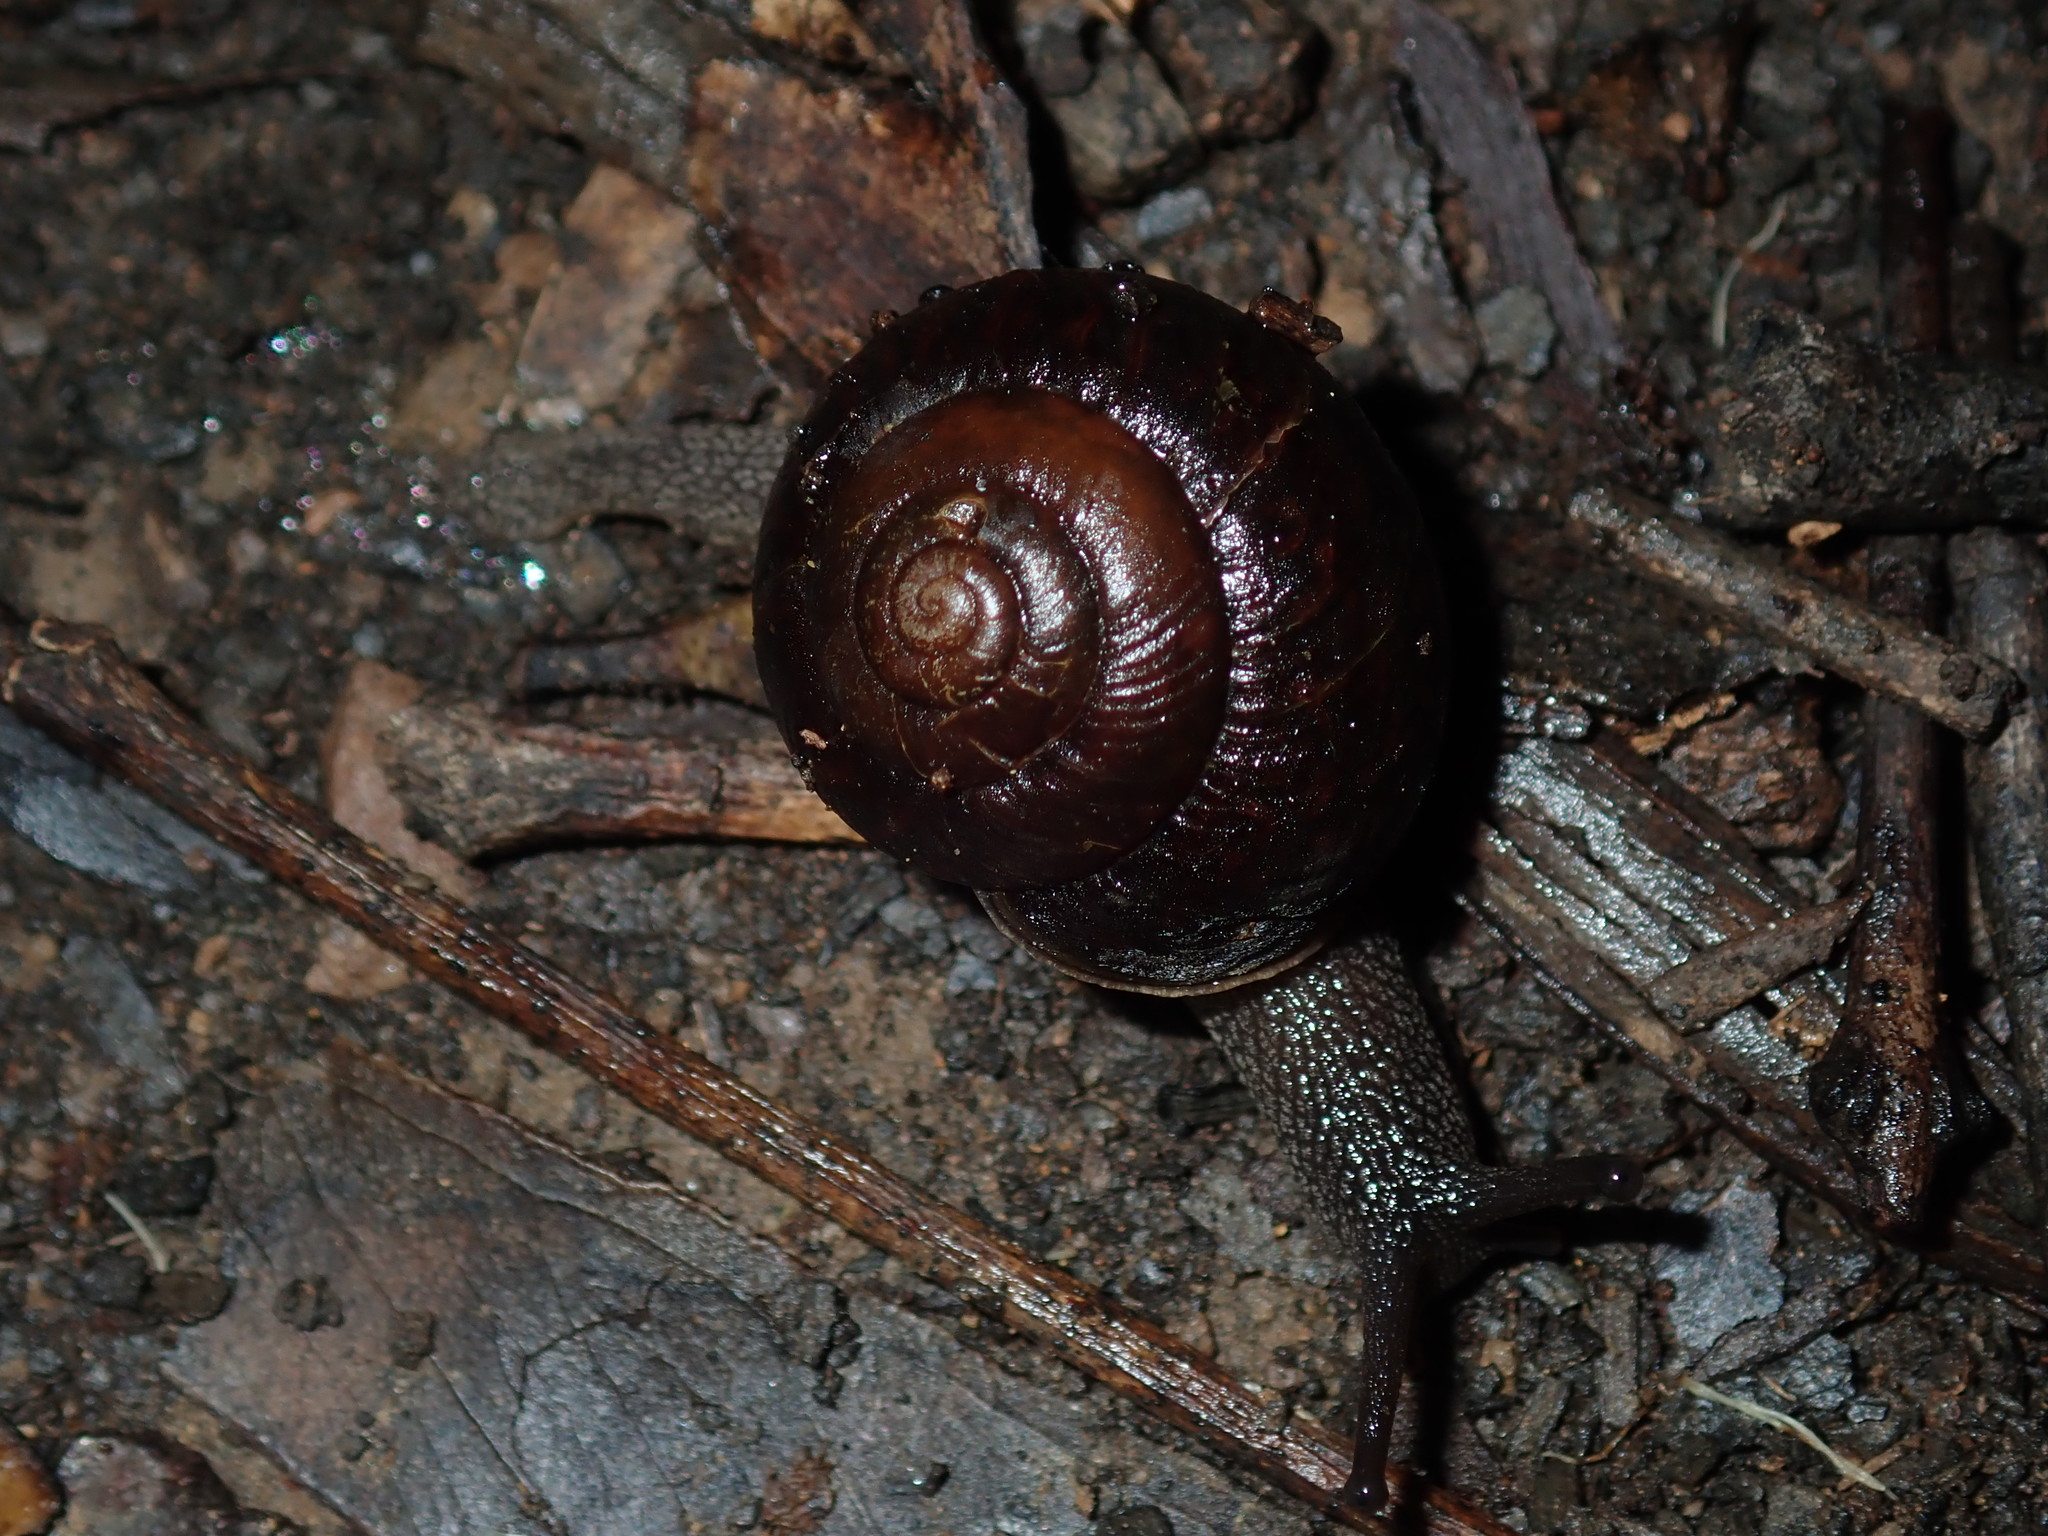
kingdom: Animalia
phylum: Mollusca
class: Gastropoda
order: Stylommatophora
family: Camaenidae
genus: Sauroconcha
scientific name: Sauroconcha sheai
